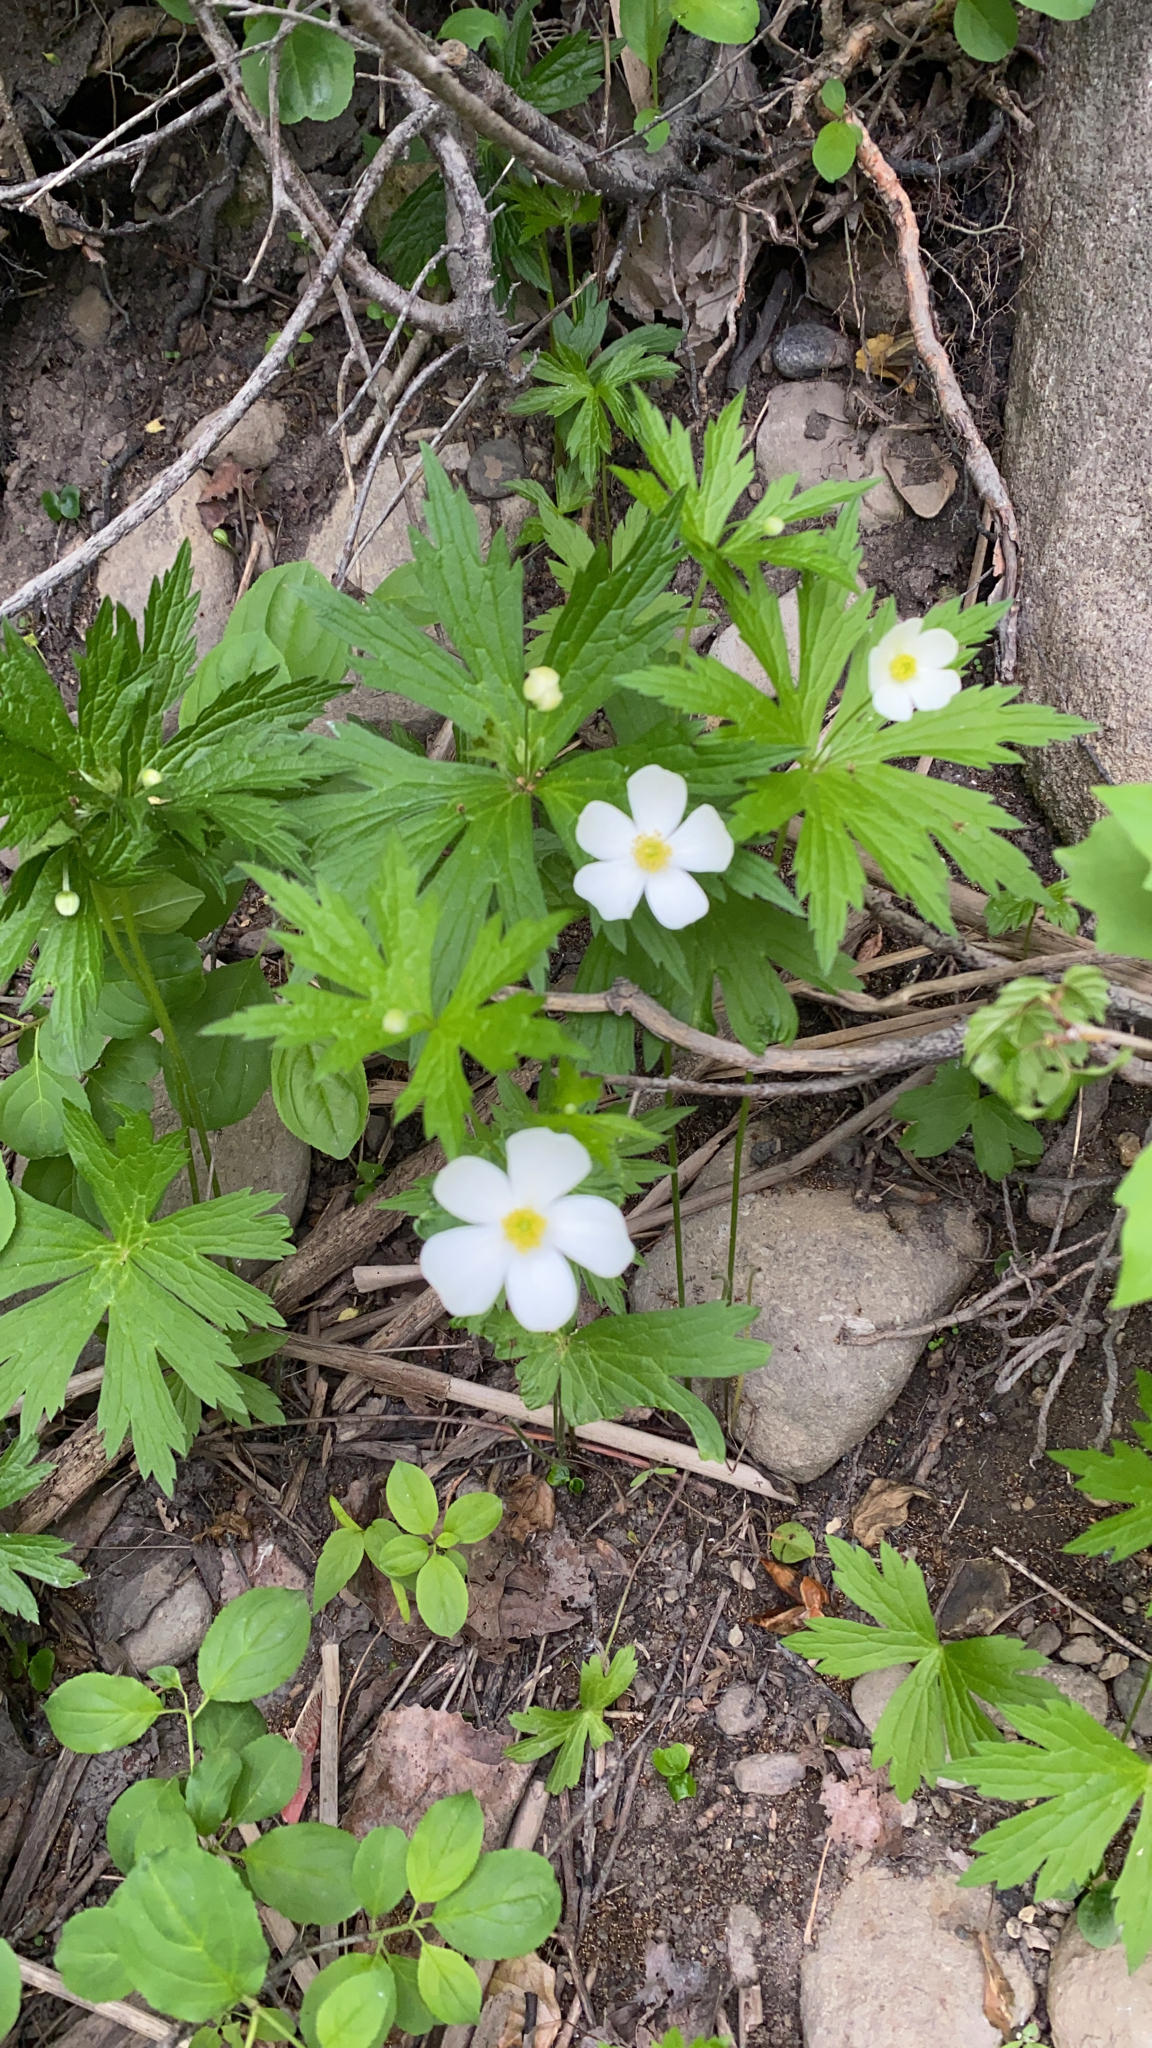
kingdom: Plantae
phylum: Tracheophyta
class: Magnoliopsida
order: Ranunculales
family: Ranunculaceae
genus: Anemonastrum
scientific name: Anemonastrum canadense
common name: Canada anemone
